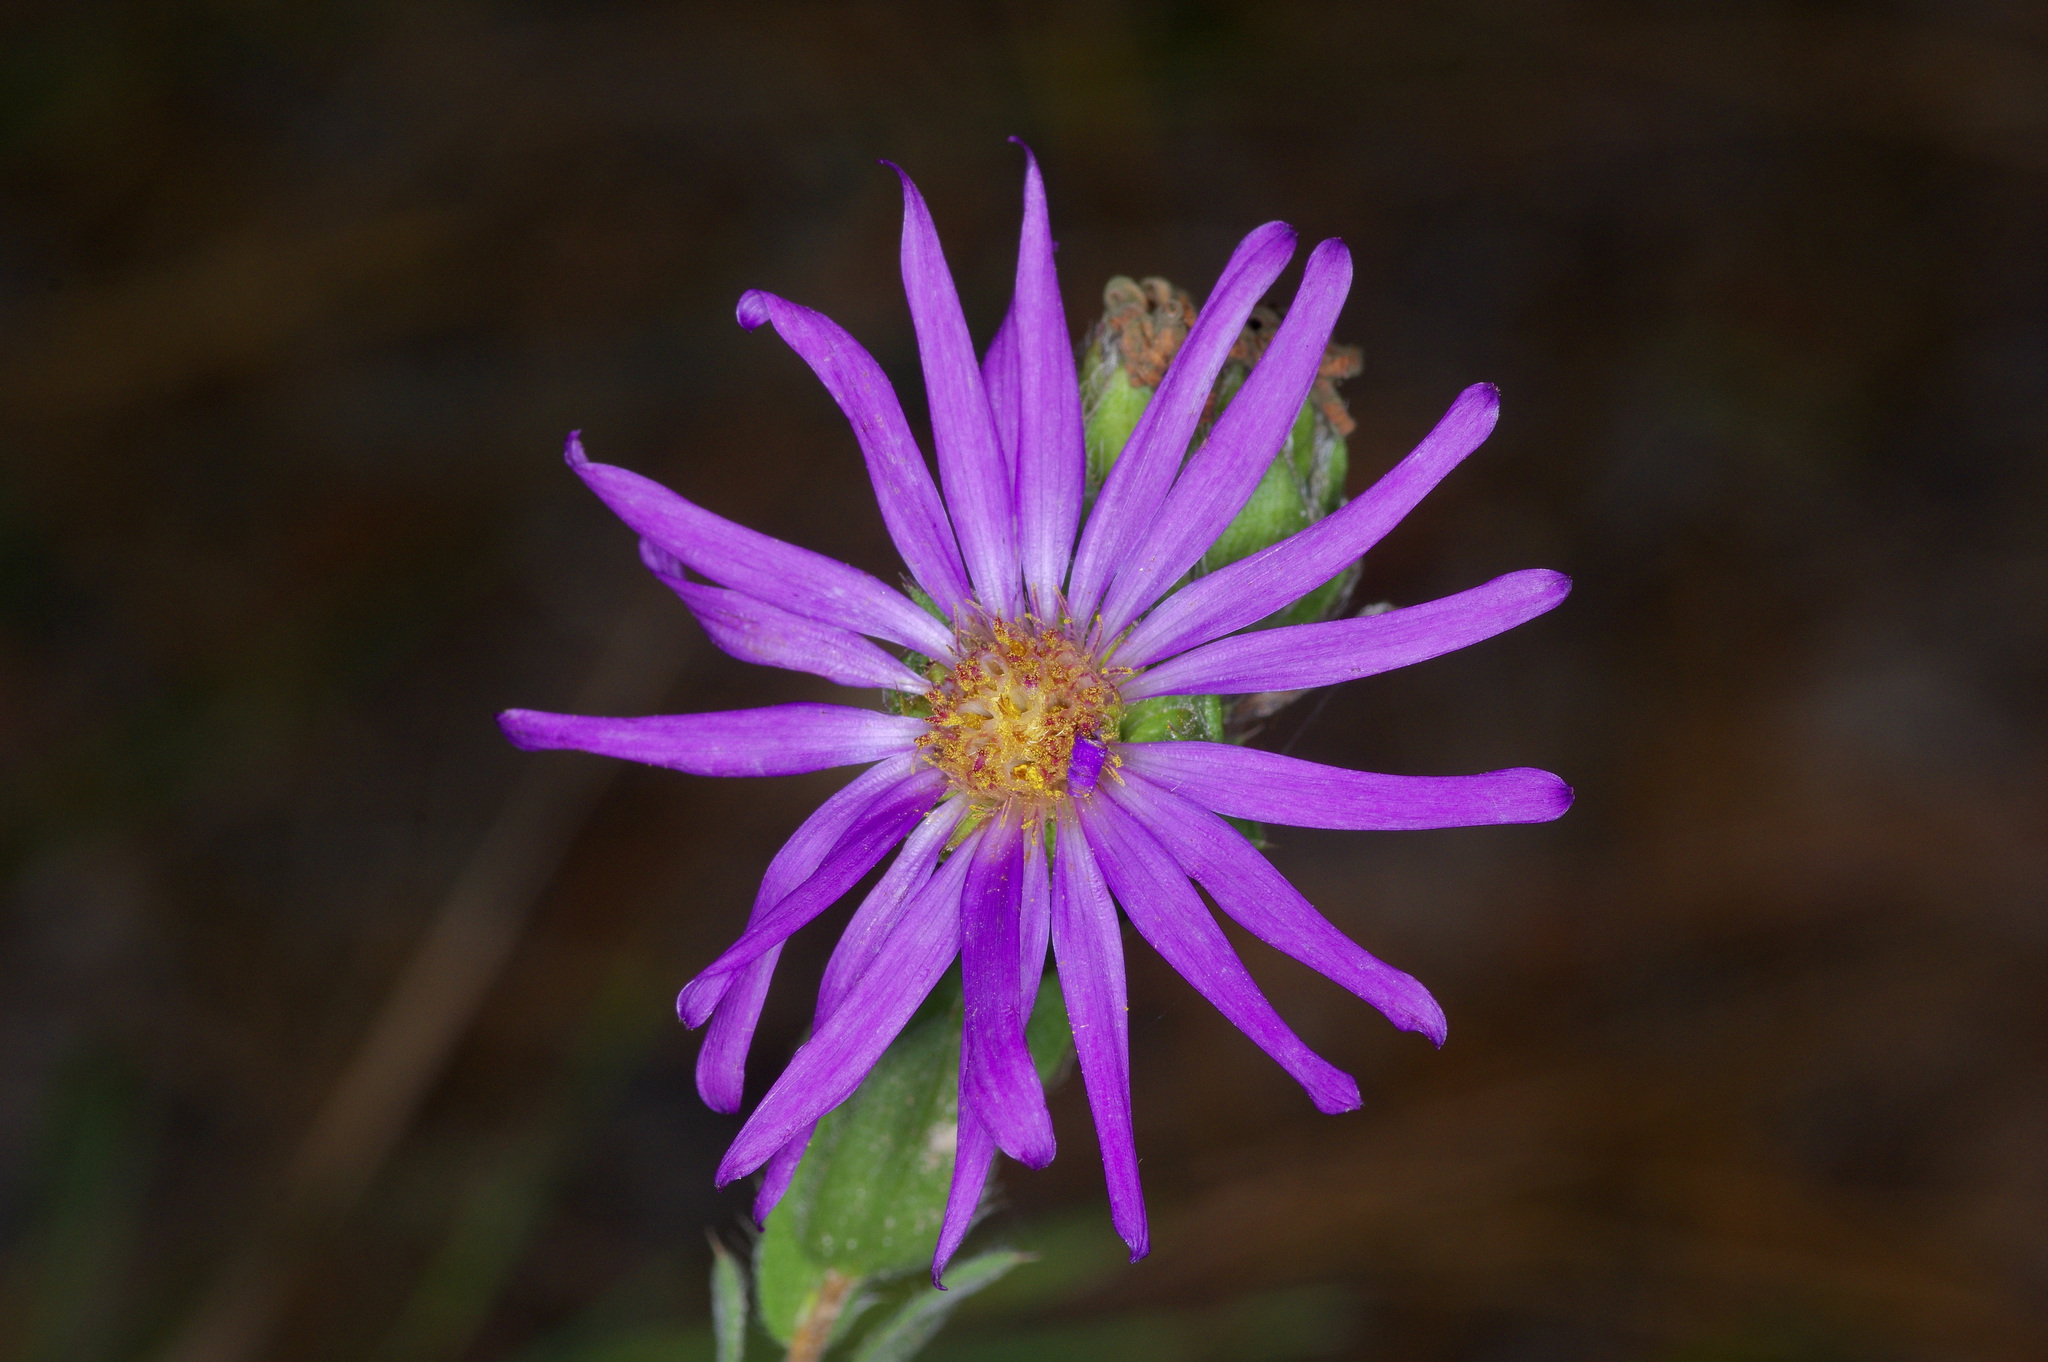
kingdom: Plantae
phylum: Tracheophyta
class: Magnoliopsida
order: Asterales
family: Asteraceae
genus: Symphyotrichum
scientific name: Symphyotrichum pratense
